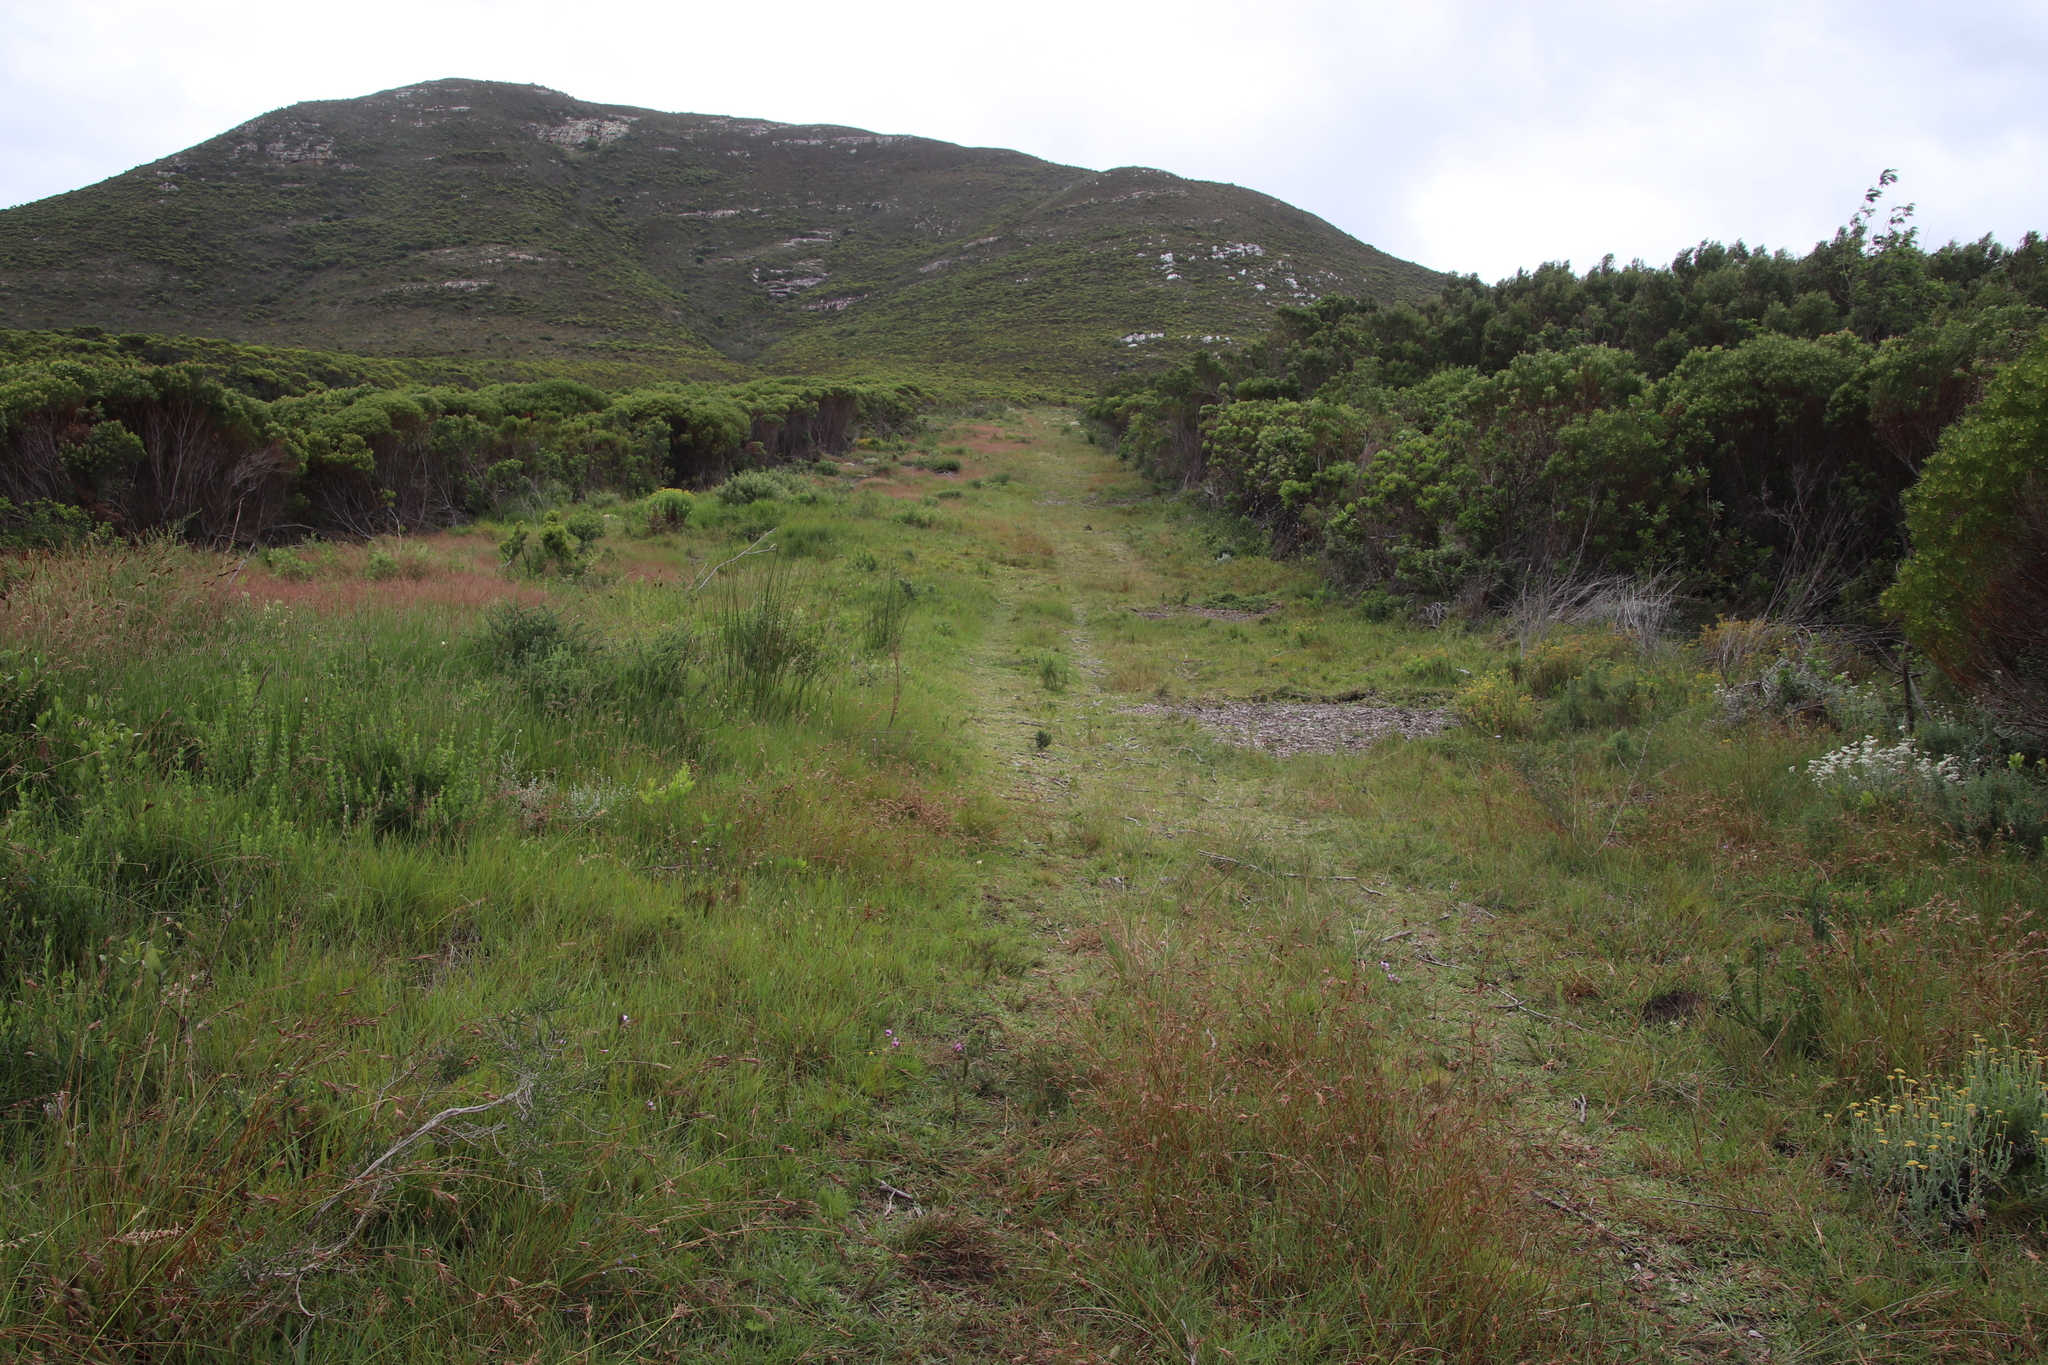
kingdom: Plantae
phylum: Tracheophyta
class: Liliopsida
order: Poales
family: Poaceae
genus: Stenotaphrum
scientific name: Stenotaphrum secundatum
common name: St. augustine grass
